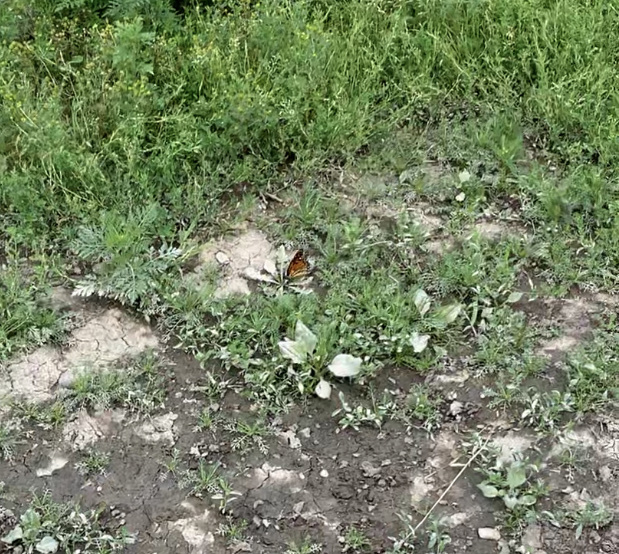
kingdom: Animalia
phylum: Arthropoda
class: Insecta
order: Lepidoptera
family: Nymphalidae
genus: Danaus
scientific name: Danaus plexippus
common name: Monarch
